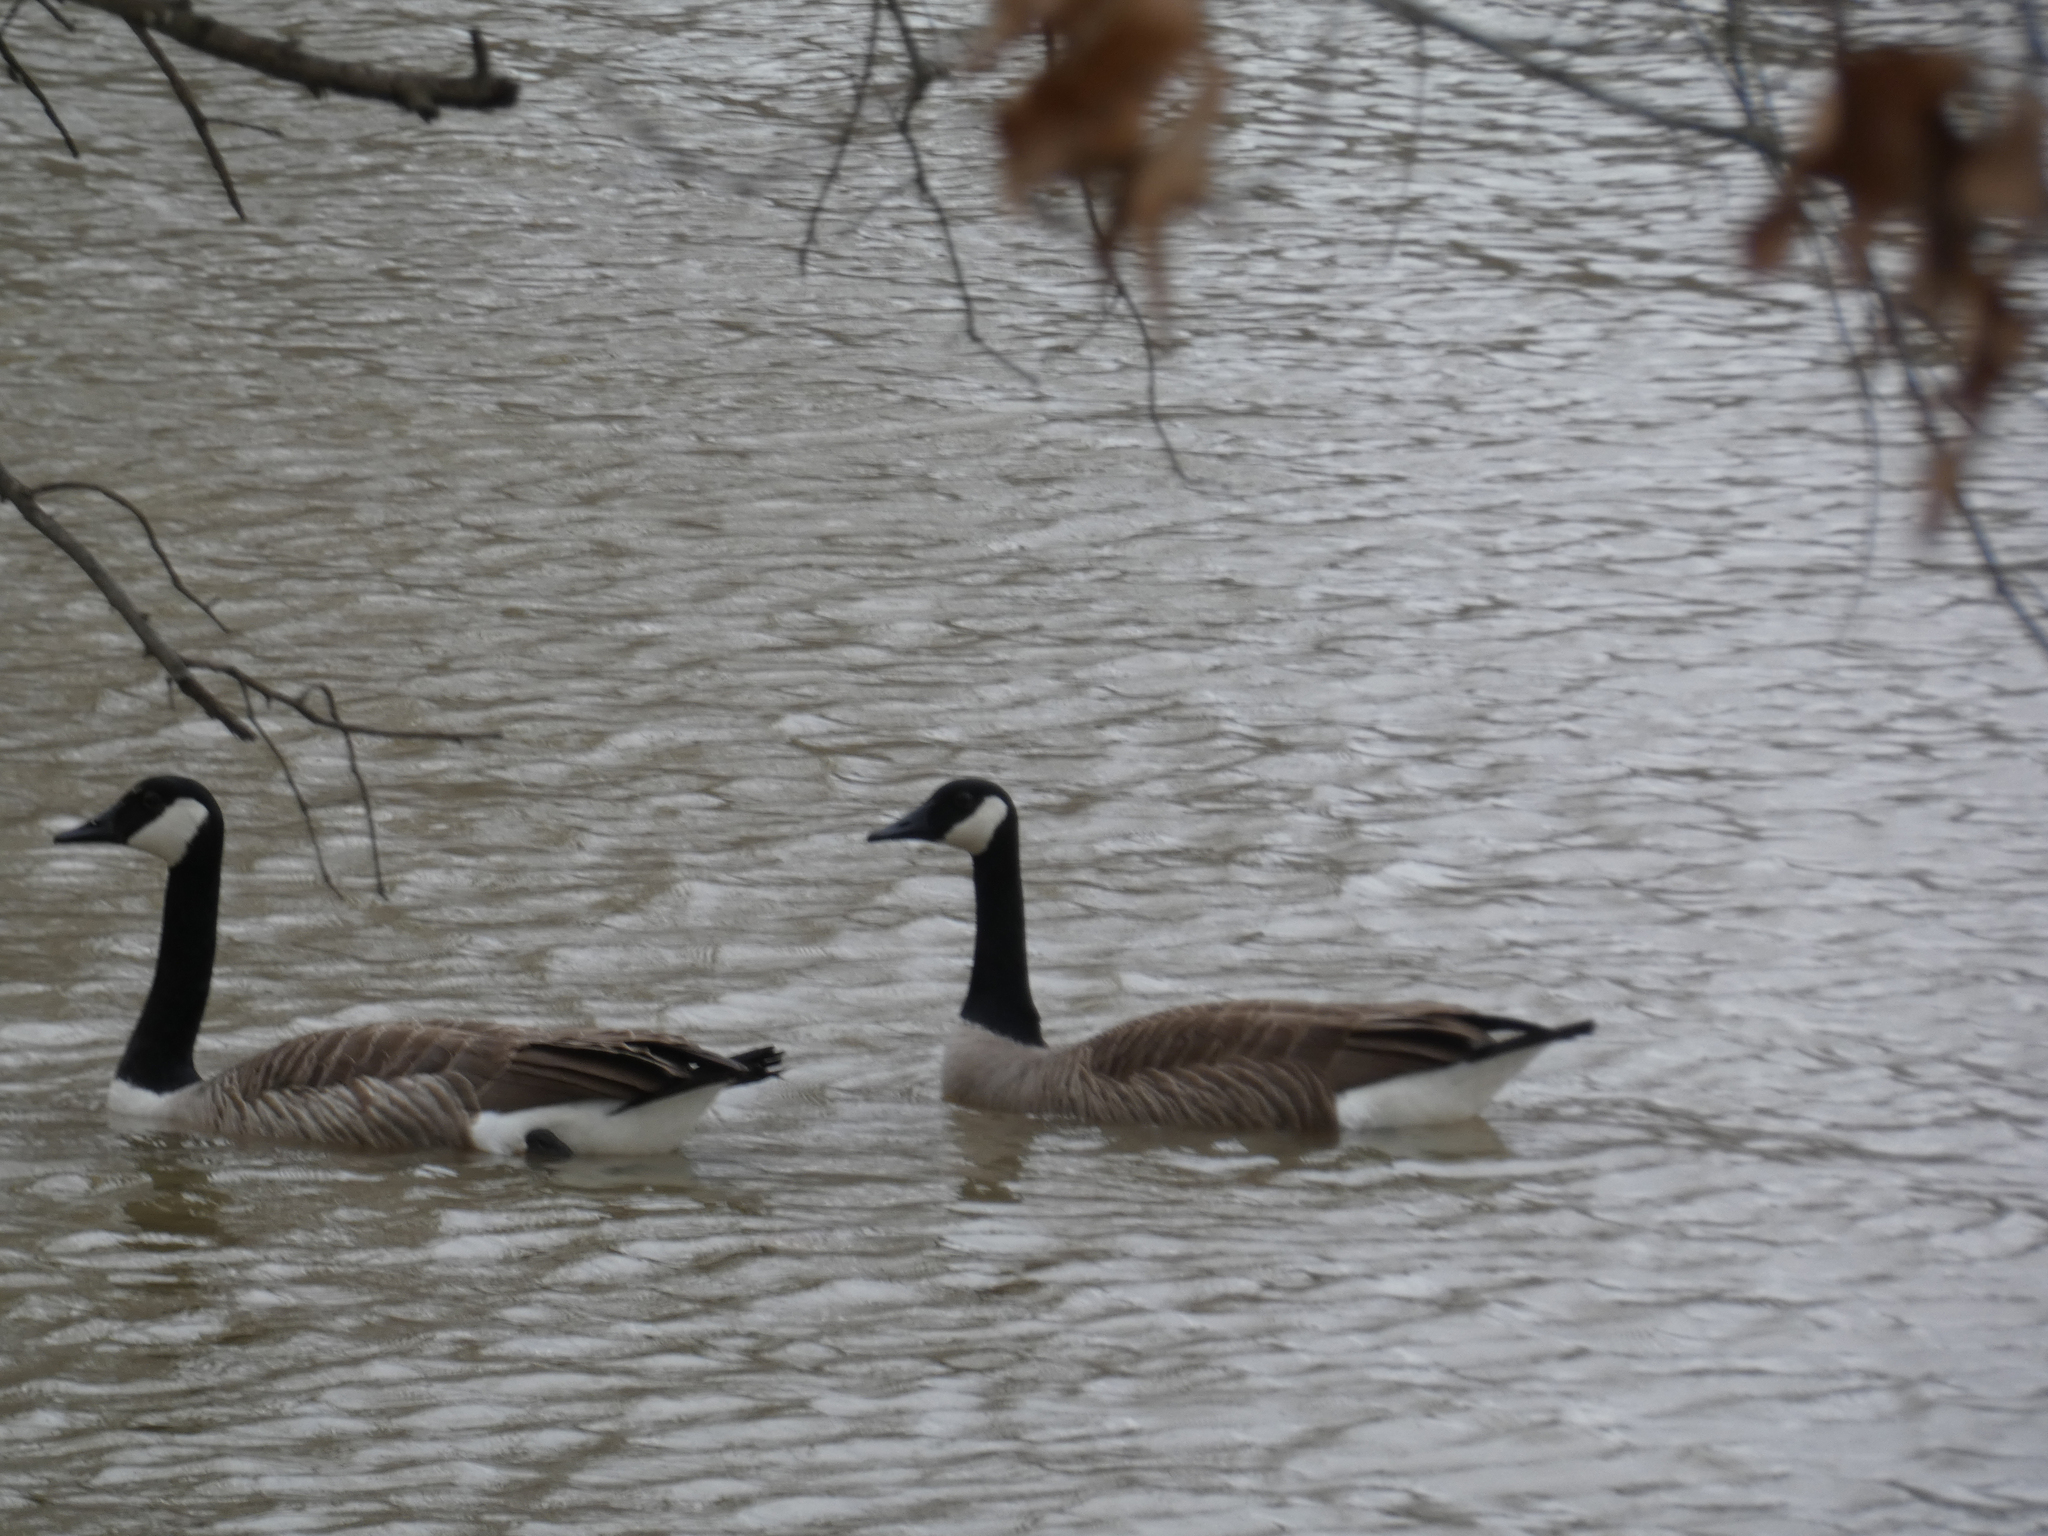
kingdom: Animalia
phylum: Chordata
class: Aves
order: Anseriformes
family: Anatidae
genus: Branta
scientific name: Branta canadensis
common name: Canada goose
